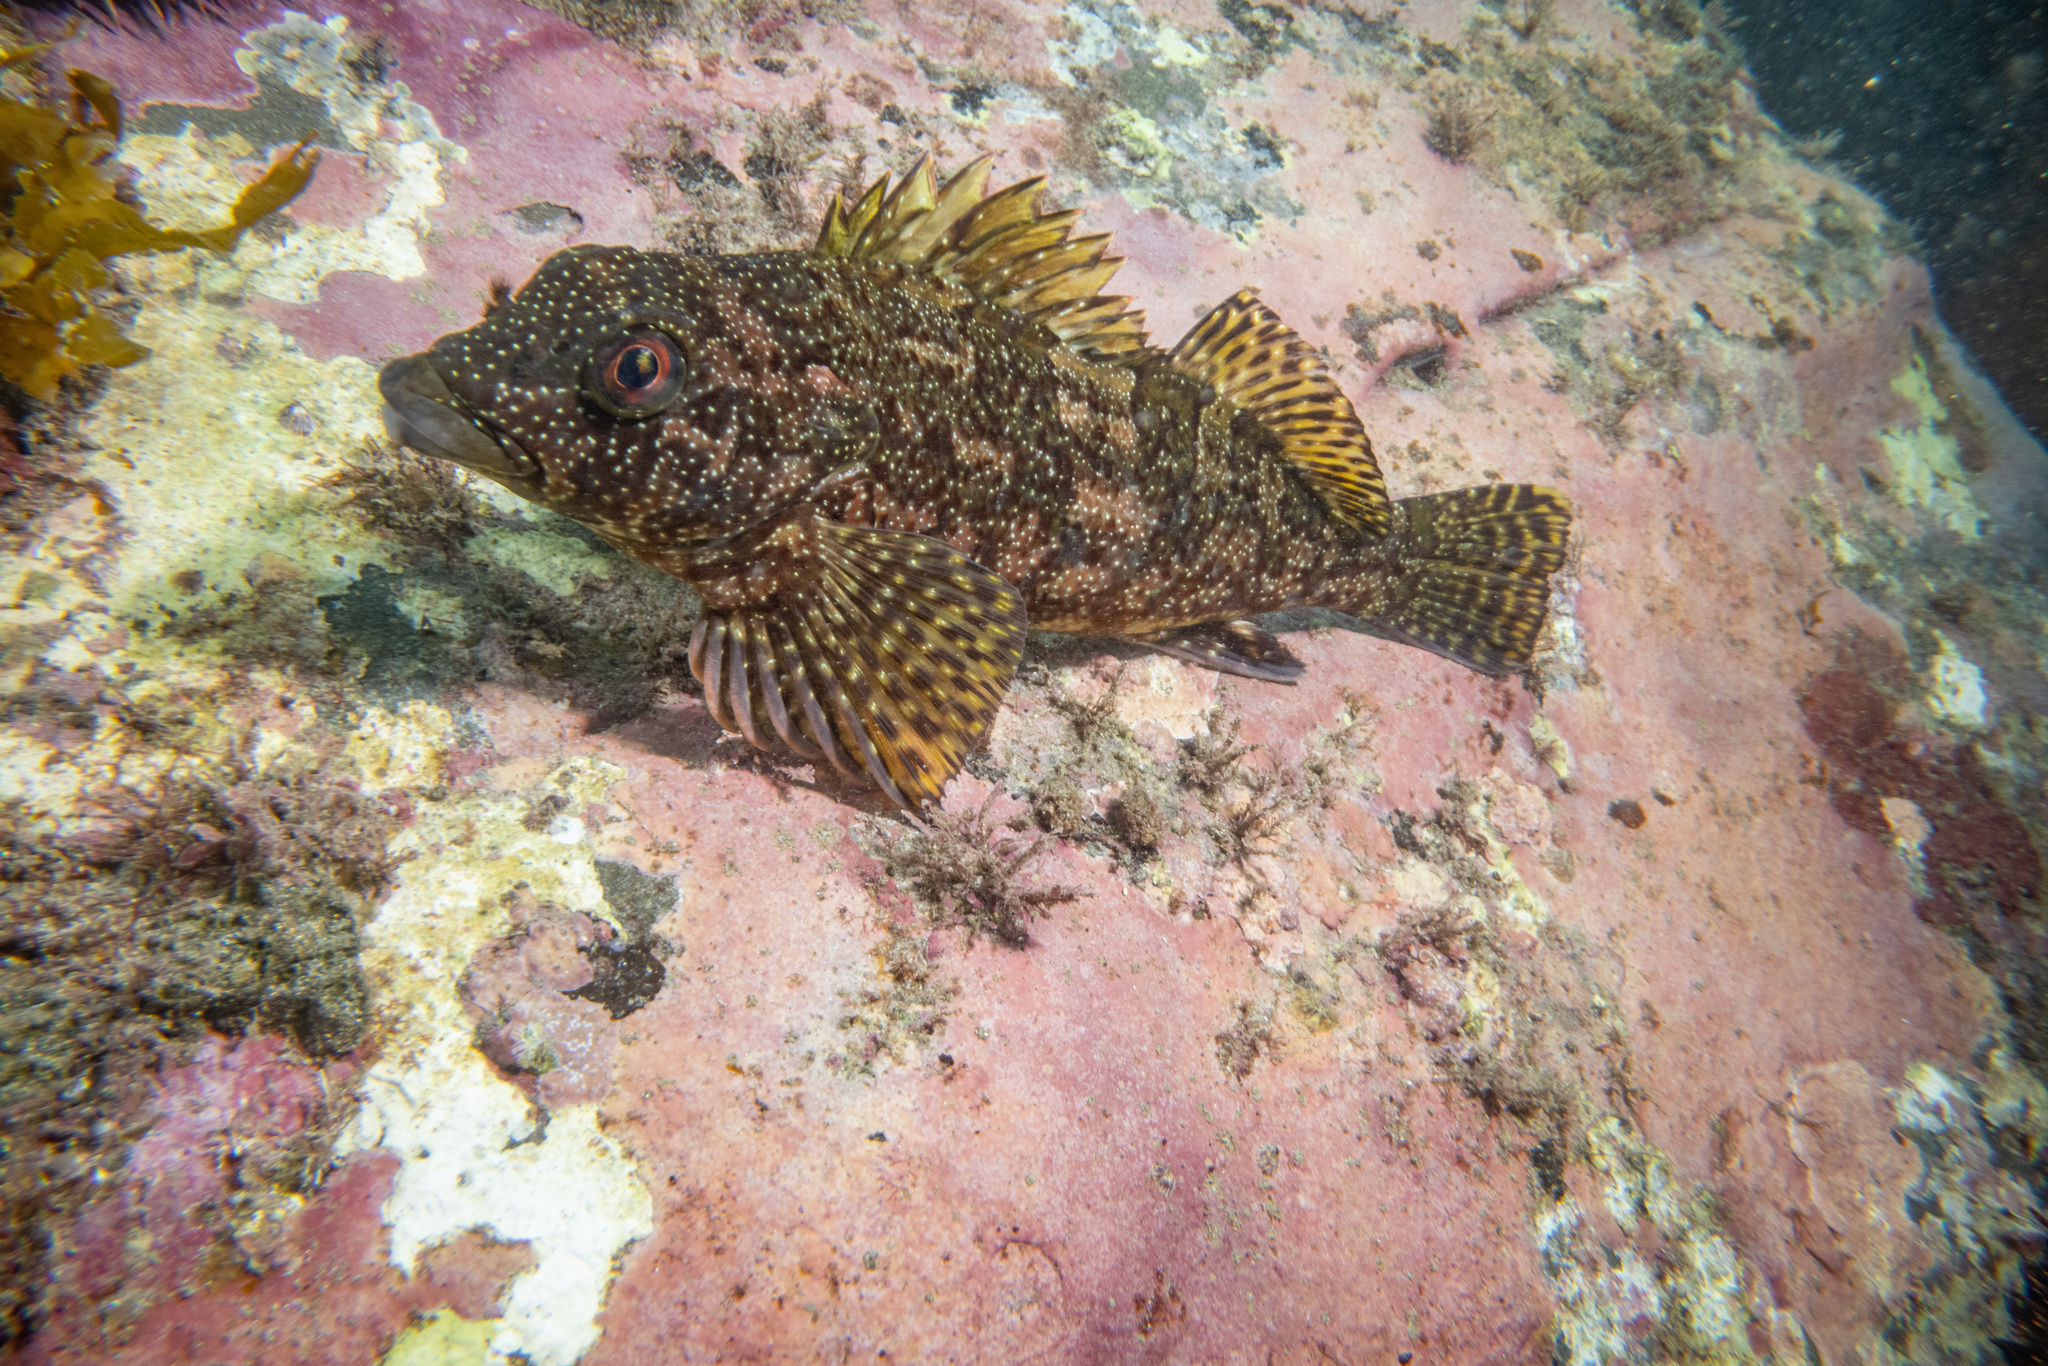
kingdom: Animalia
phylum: Chordata
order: Perciformes
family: Chironemidae
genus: Chironemus
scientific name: Chironemus marmoratus
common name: Kelpfish
